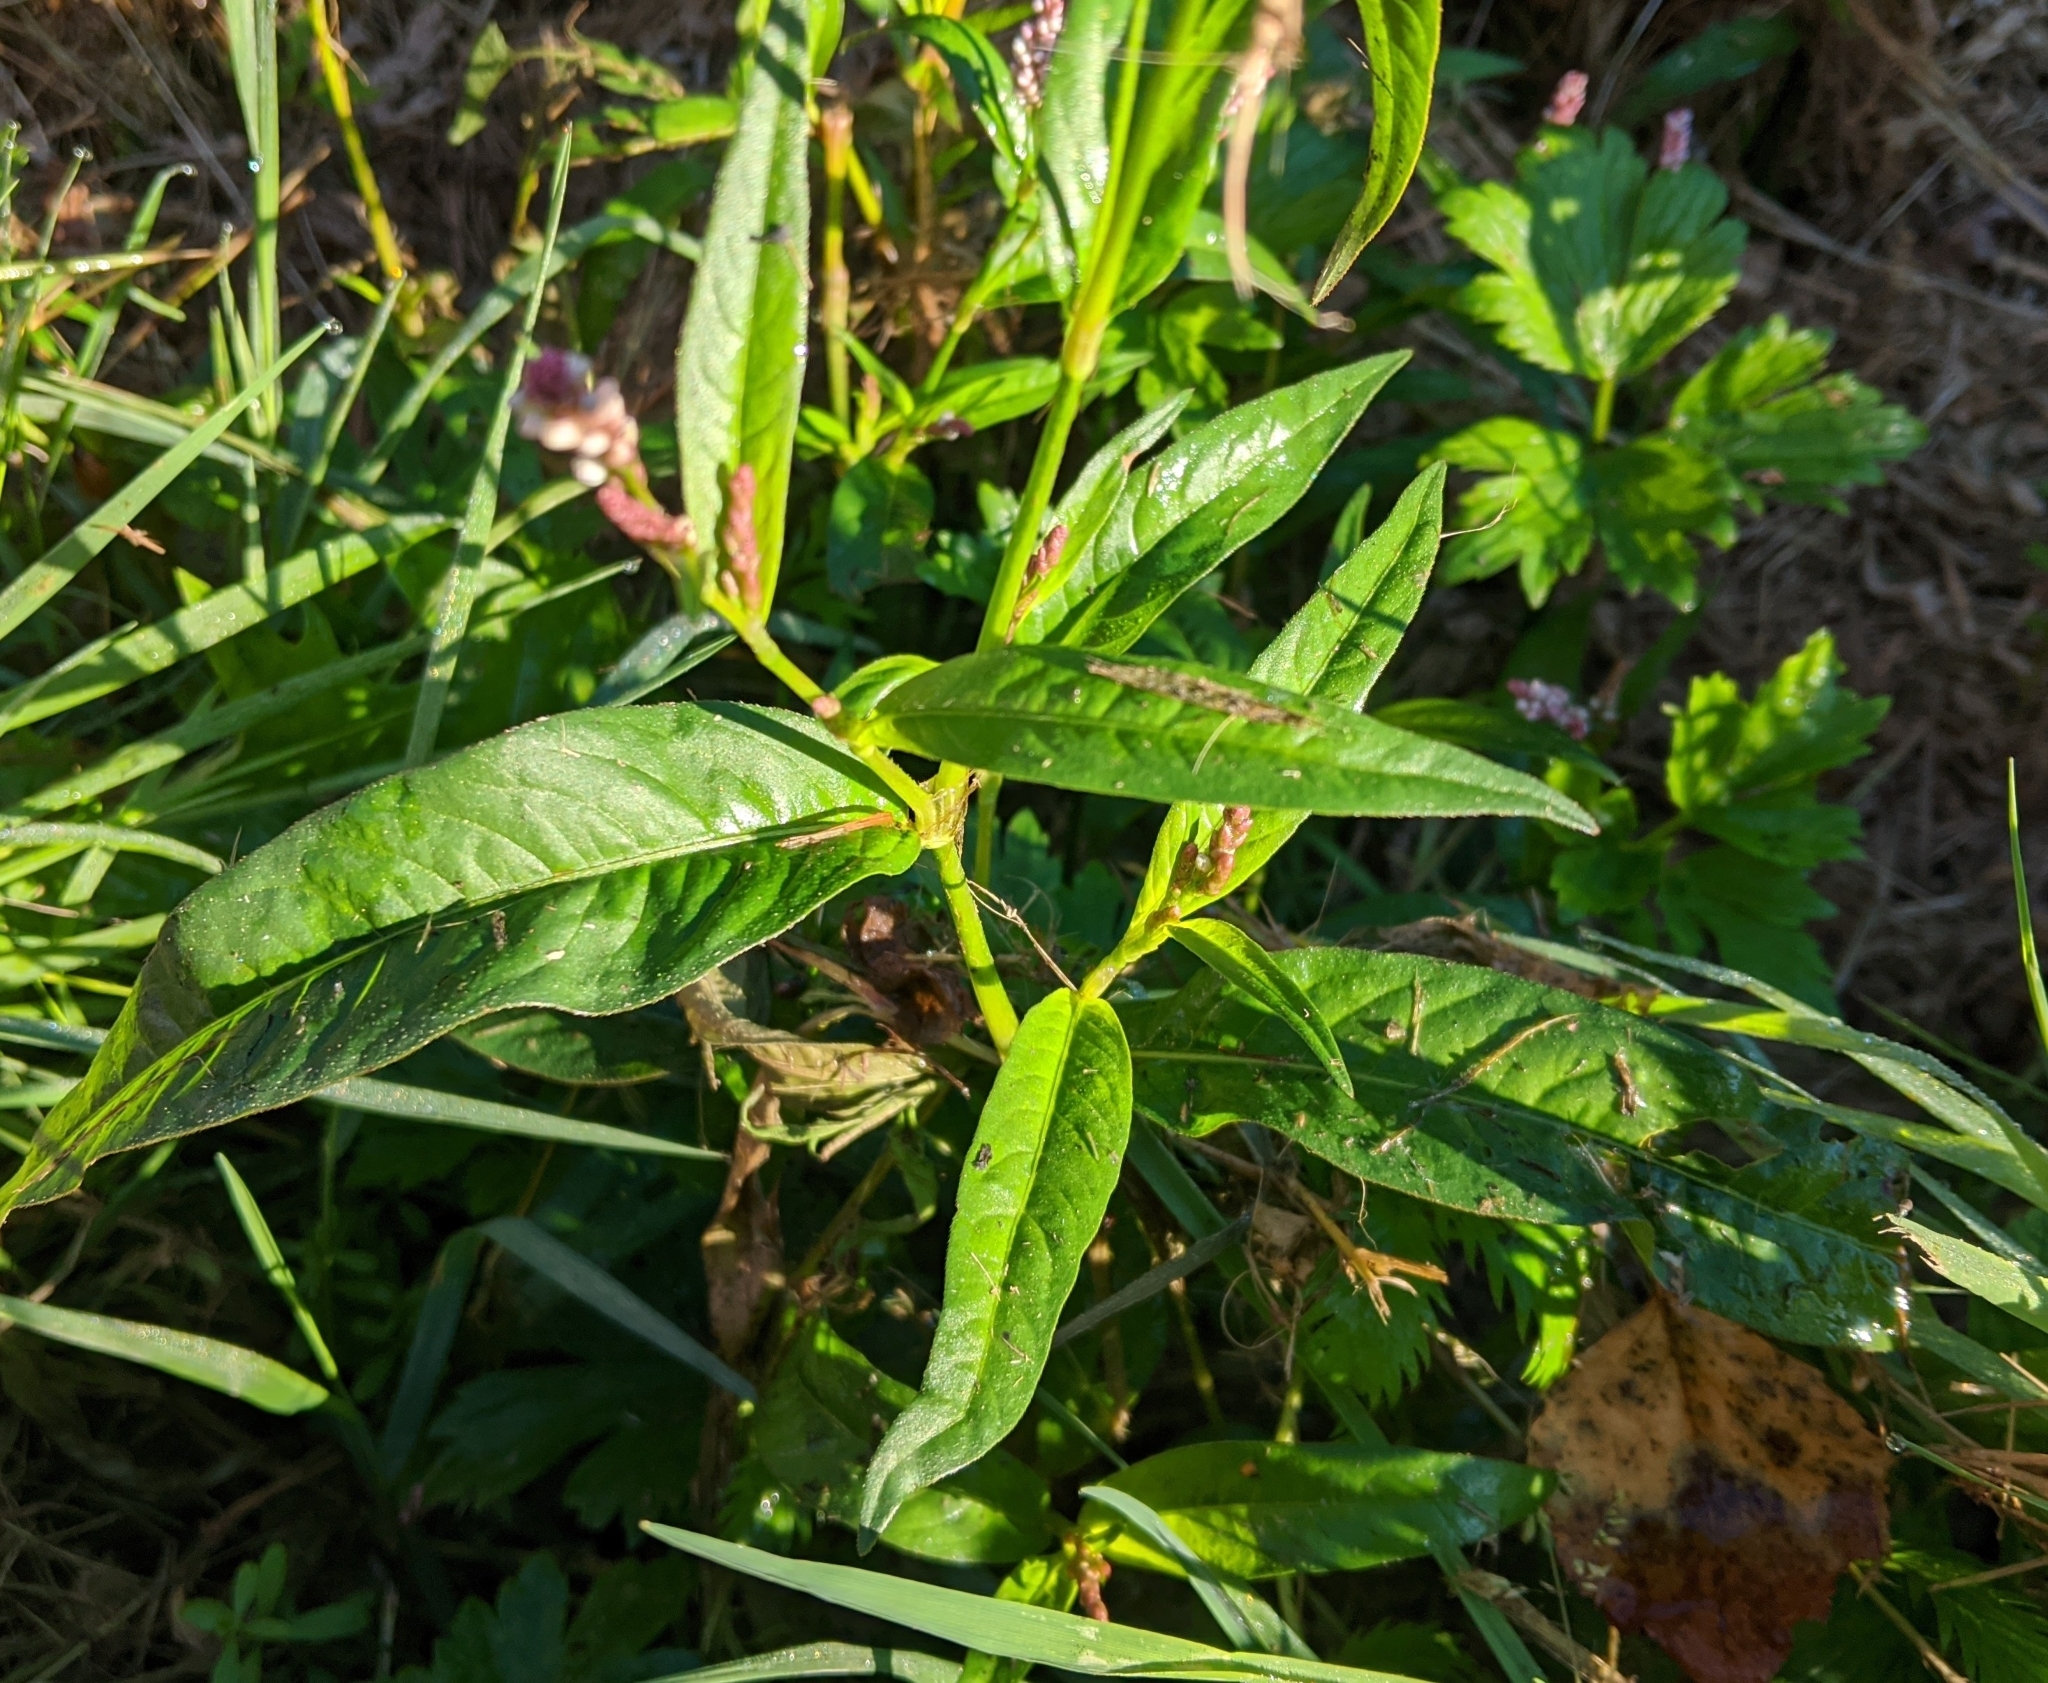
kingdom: Plantae
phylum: Tracheophyta
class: Magnoliopsida
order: Caryophyllales
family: Polygonaceae
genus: Persicaria
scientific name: Persicaria maculosa
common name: Redshank
